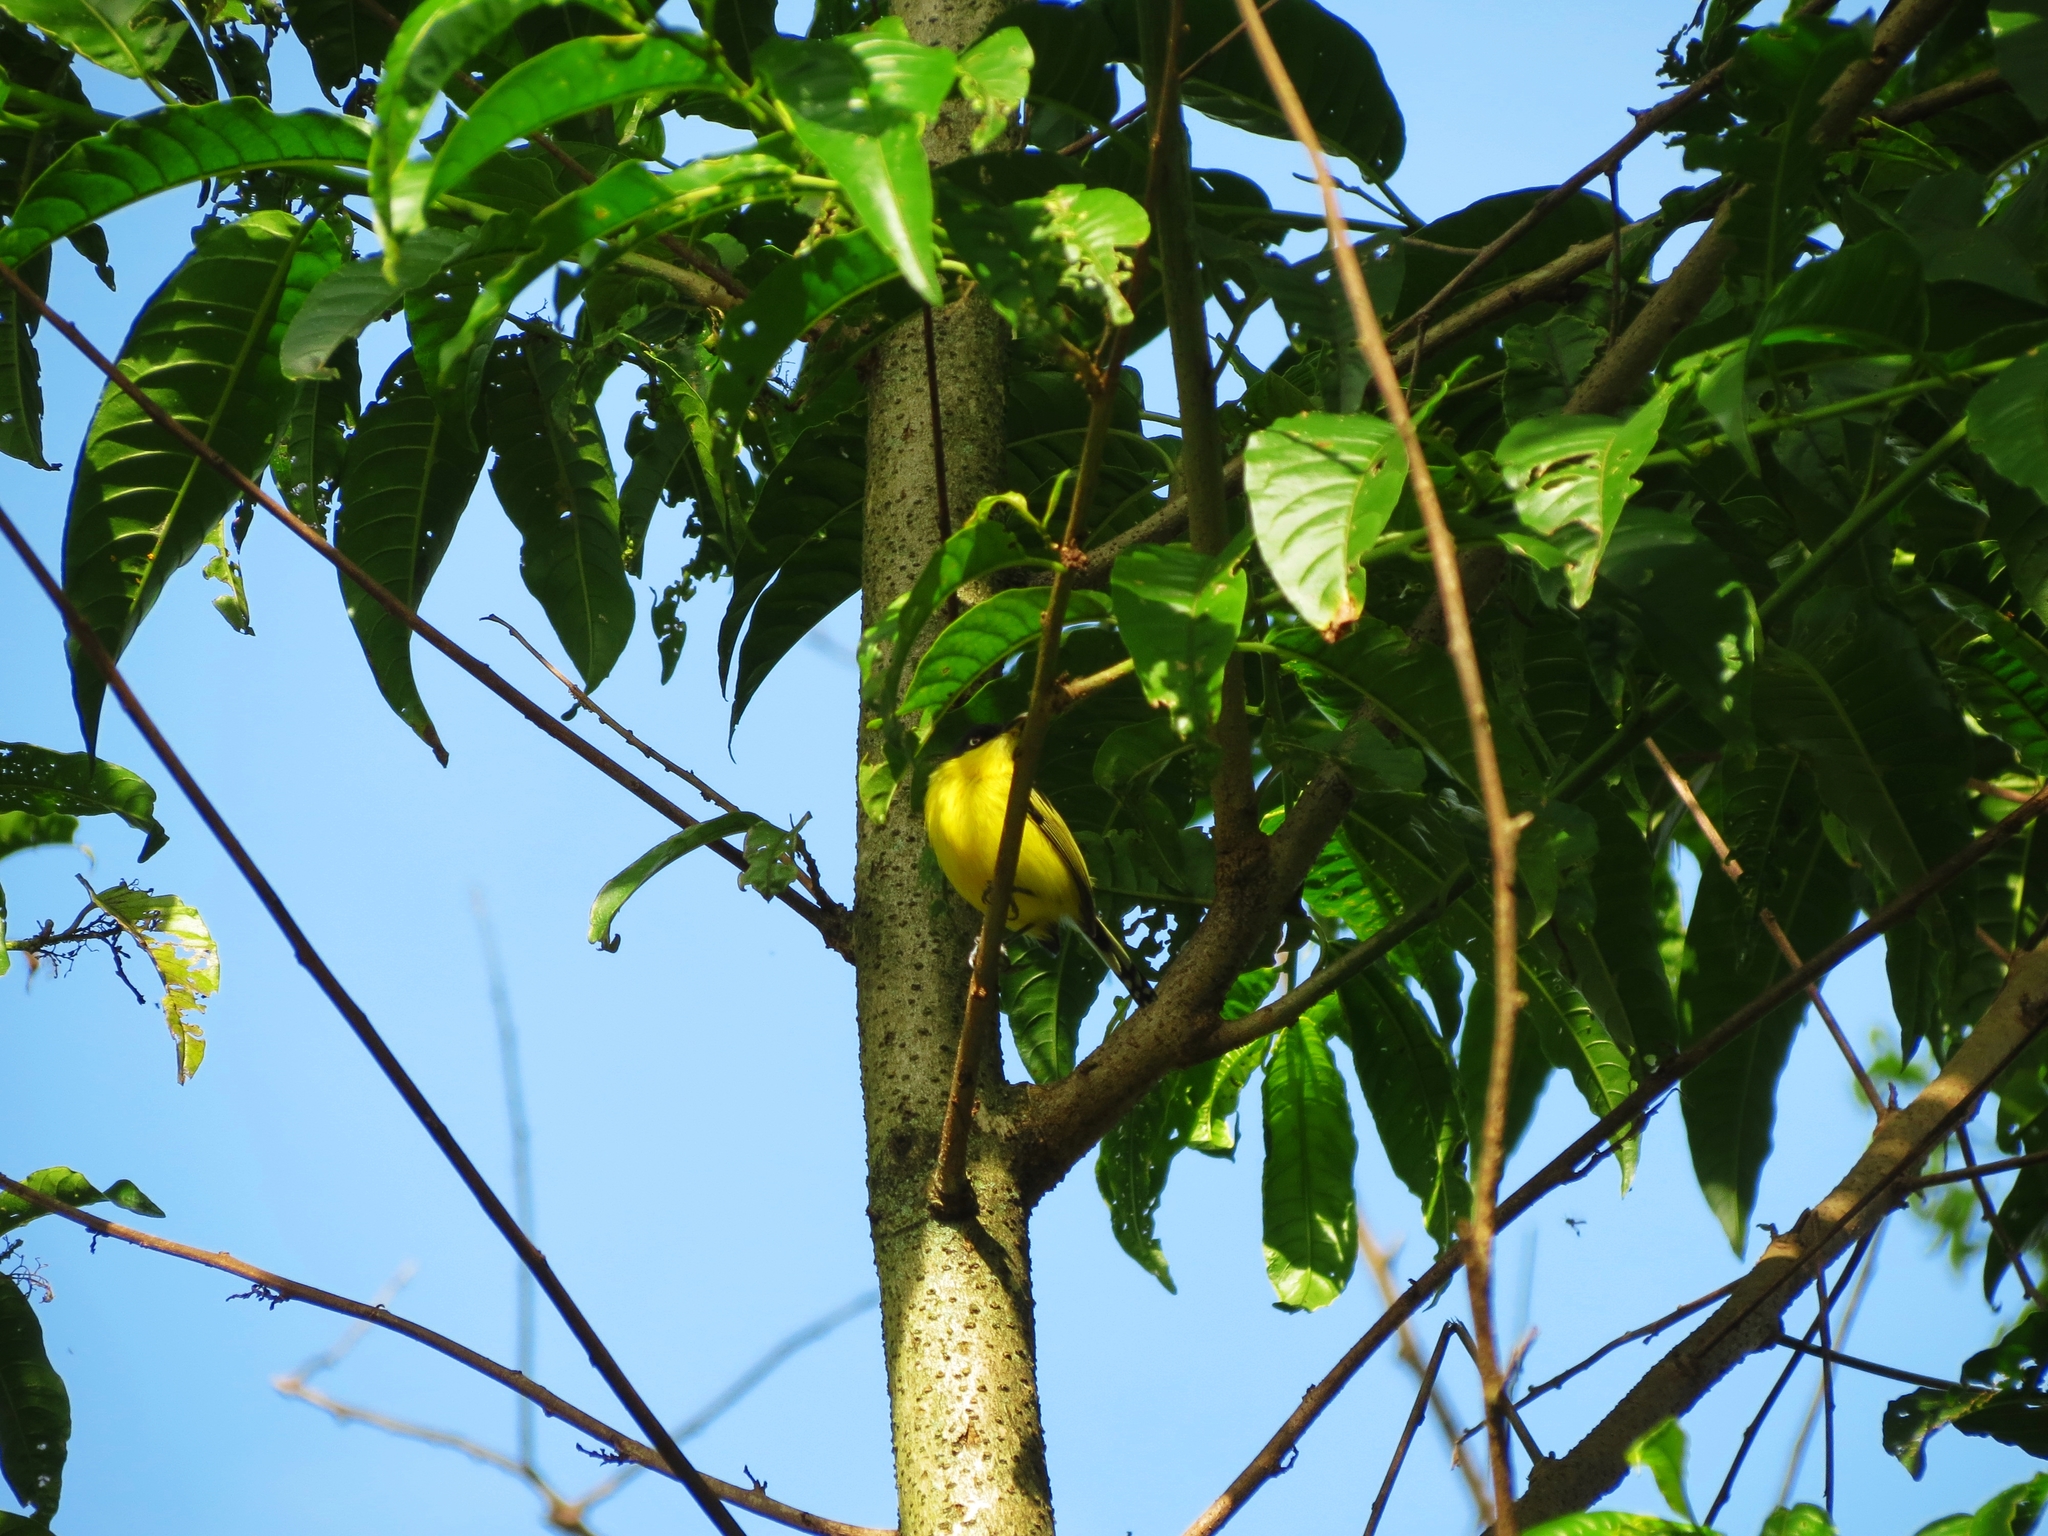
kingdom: Animalia
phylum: Chordata
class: Aves
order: Passeriformes
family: Tyrannidae
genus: Todirostrum
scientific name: Todirostrum cinereum
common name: Common tody-flycatcher
